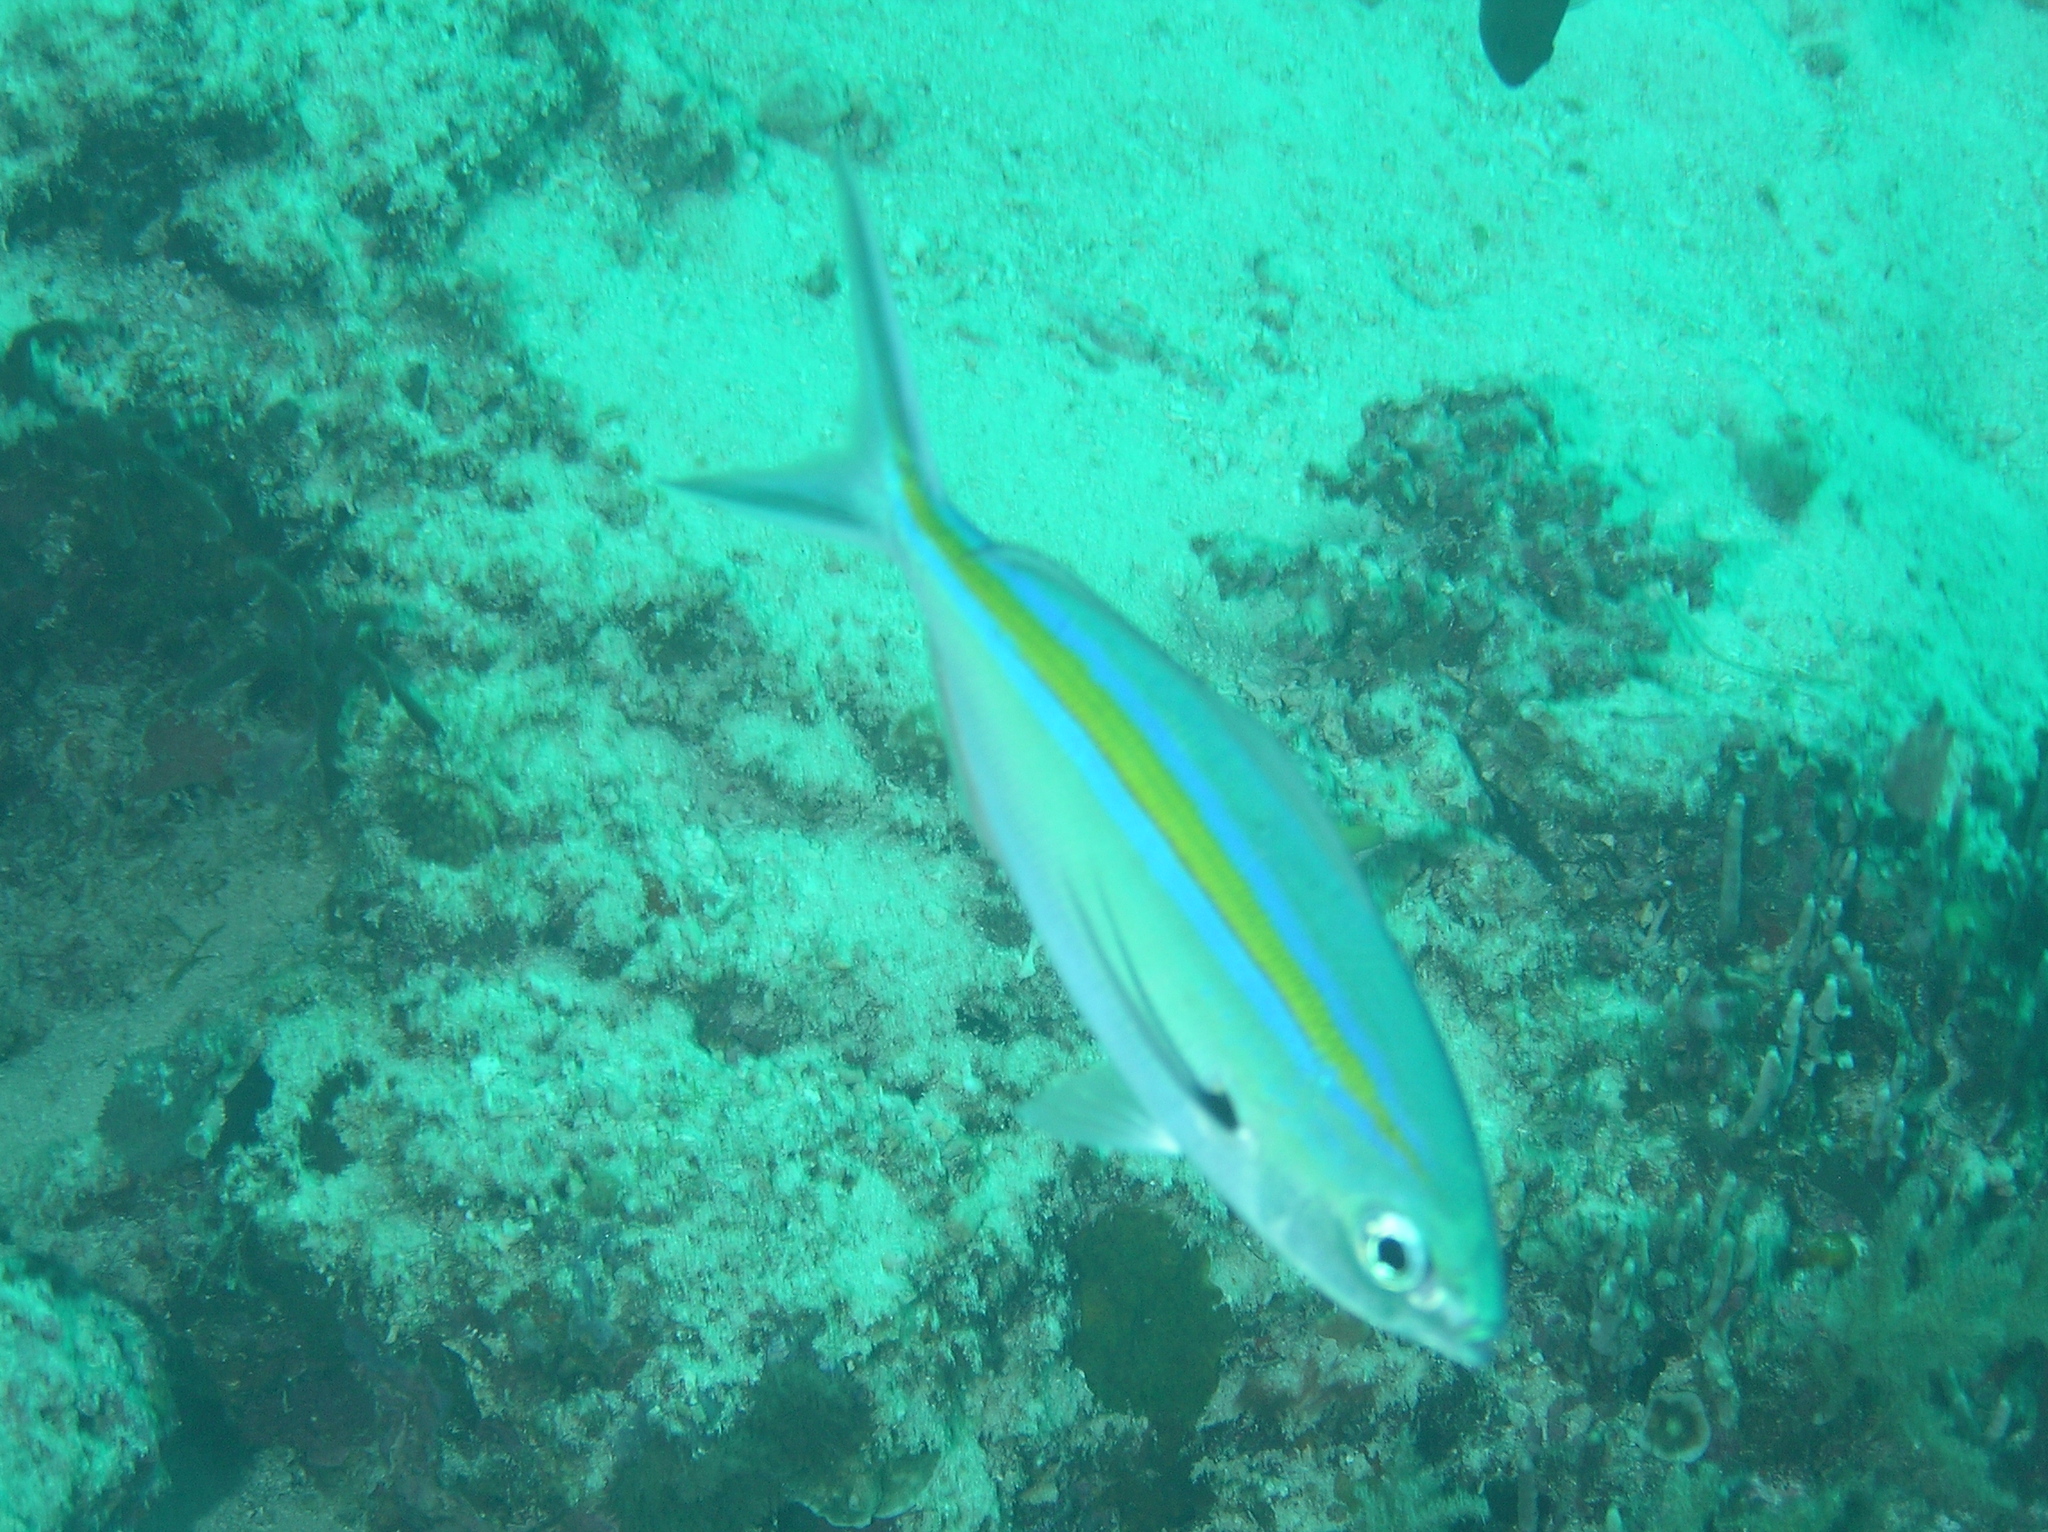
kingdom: Animalia
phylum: Chordata
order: Perciformes
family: Caesionidae
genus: Caesio
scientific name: Caesio caerulaurea
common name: Blue and gold fusilier
